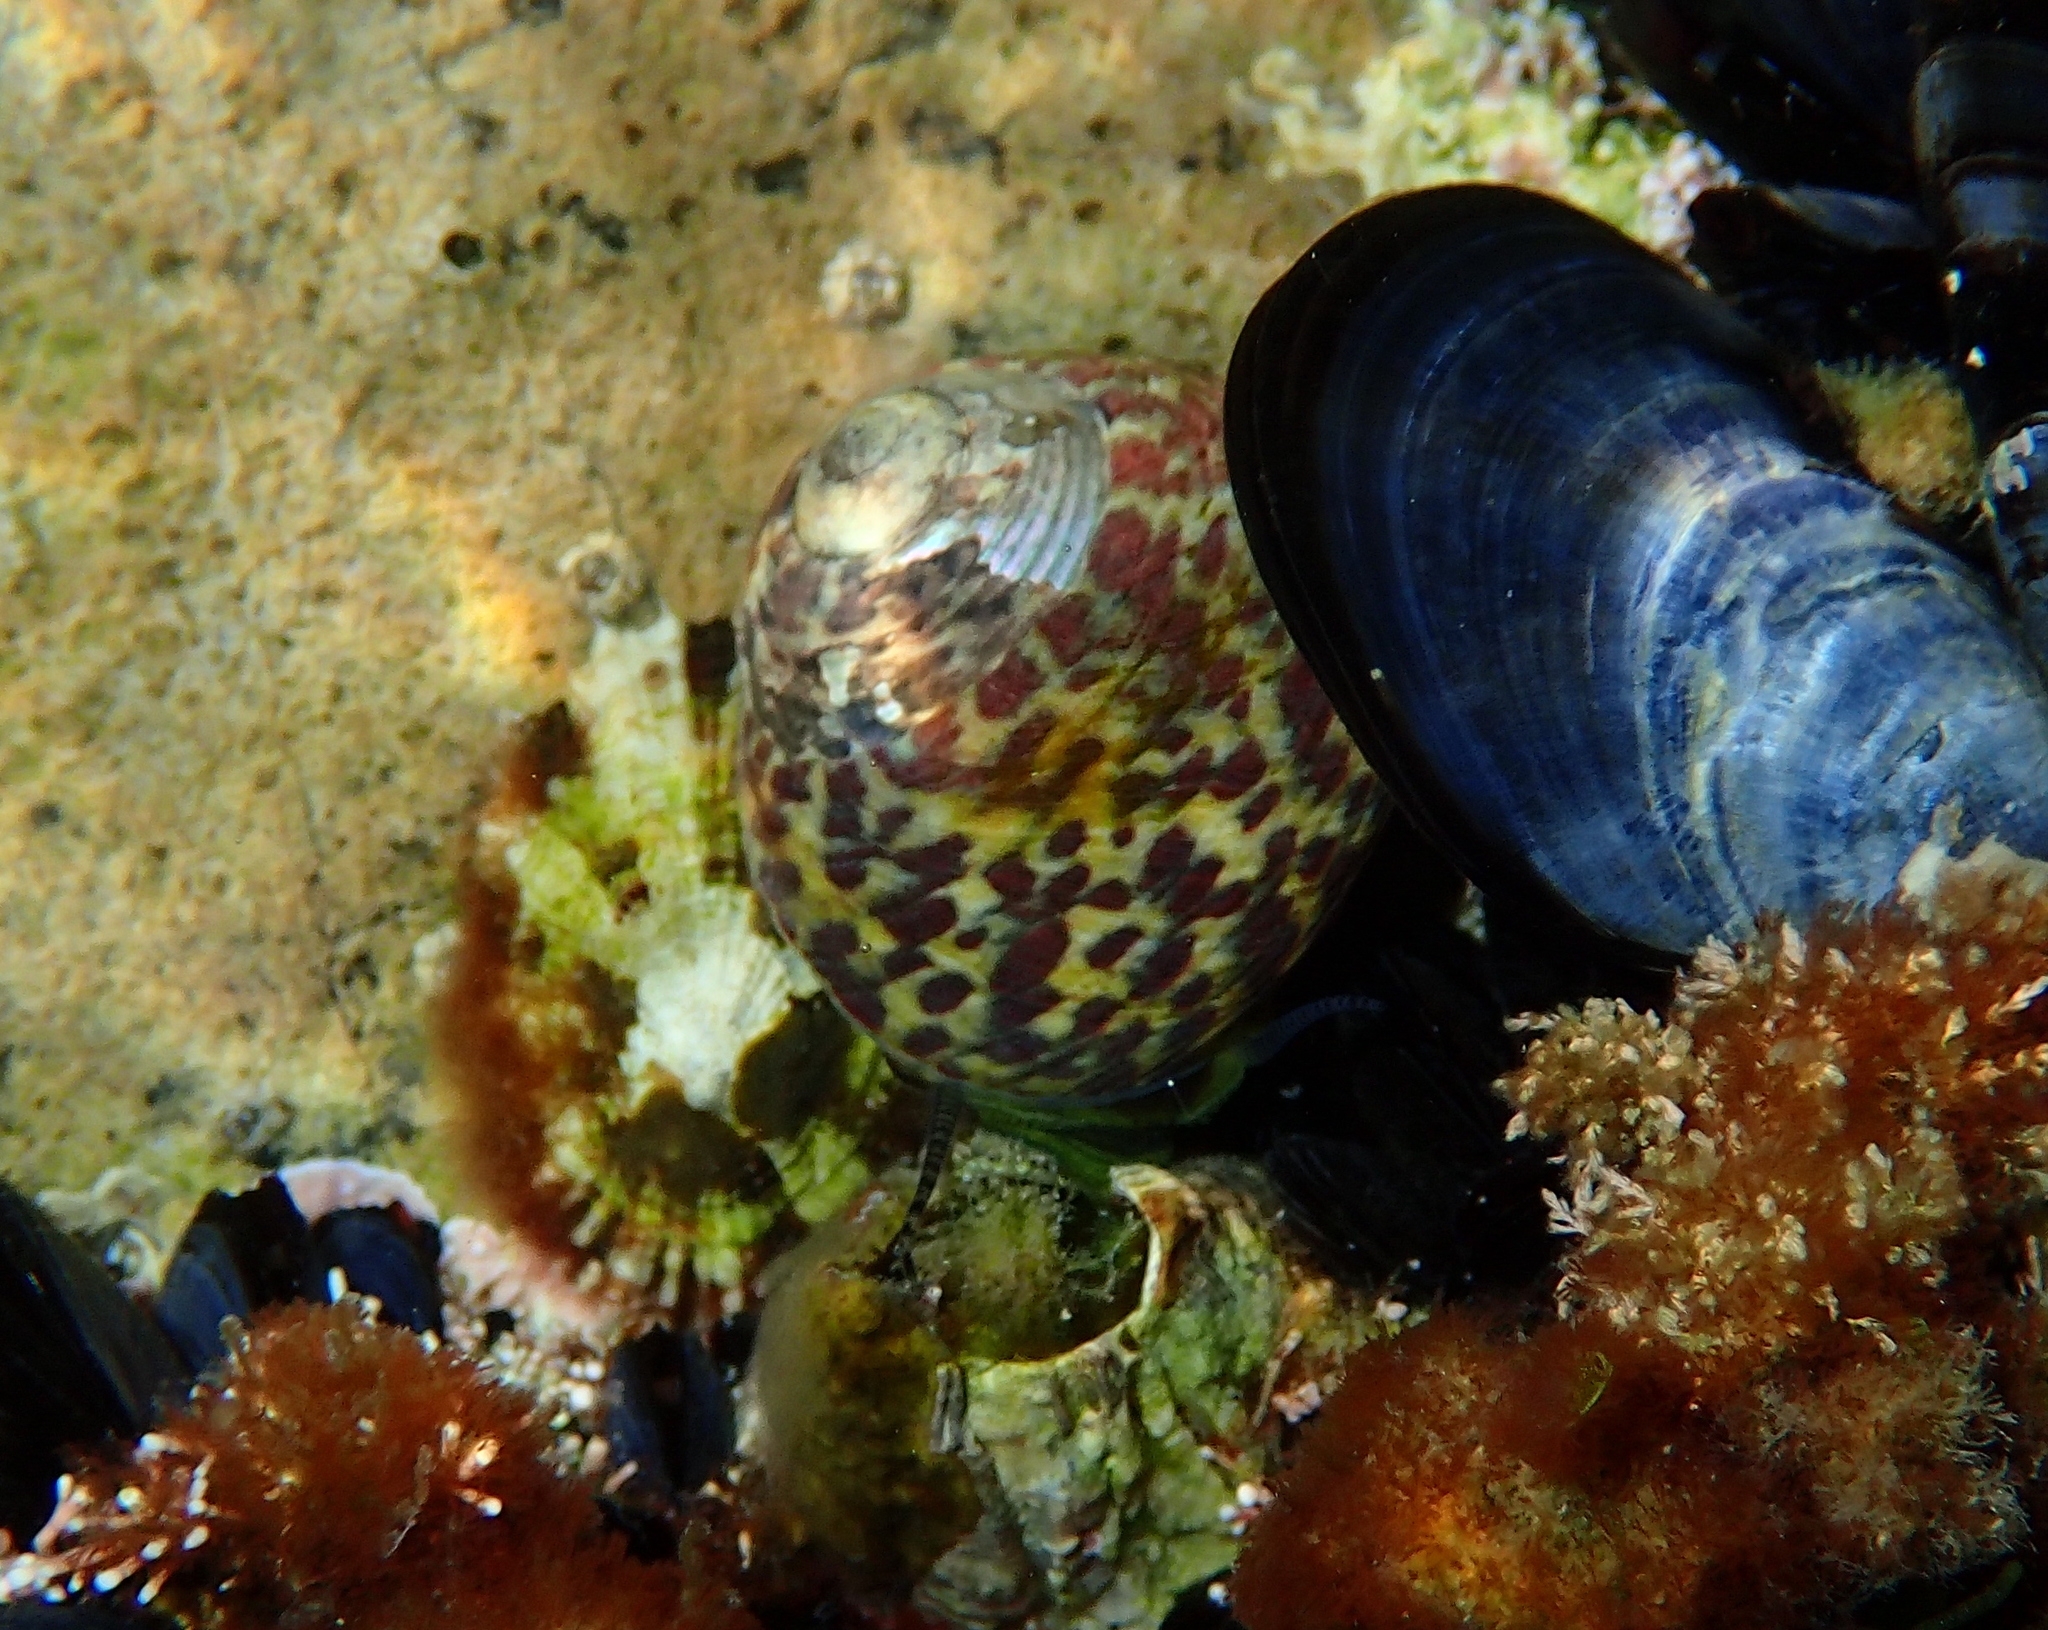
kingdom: Animalia
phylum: Mollusca
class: Gastropoda
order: Trochida
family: Trochidae
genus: Phorcus
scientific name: Phorcus turbinatus
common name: Turbinate monodont
